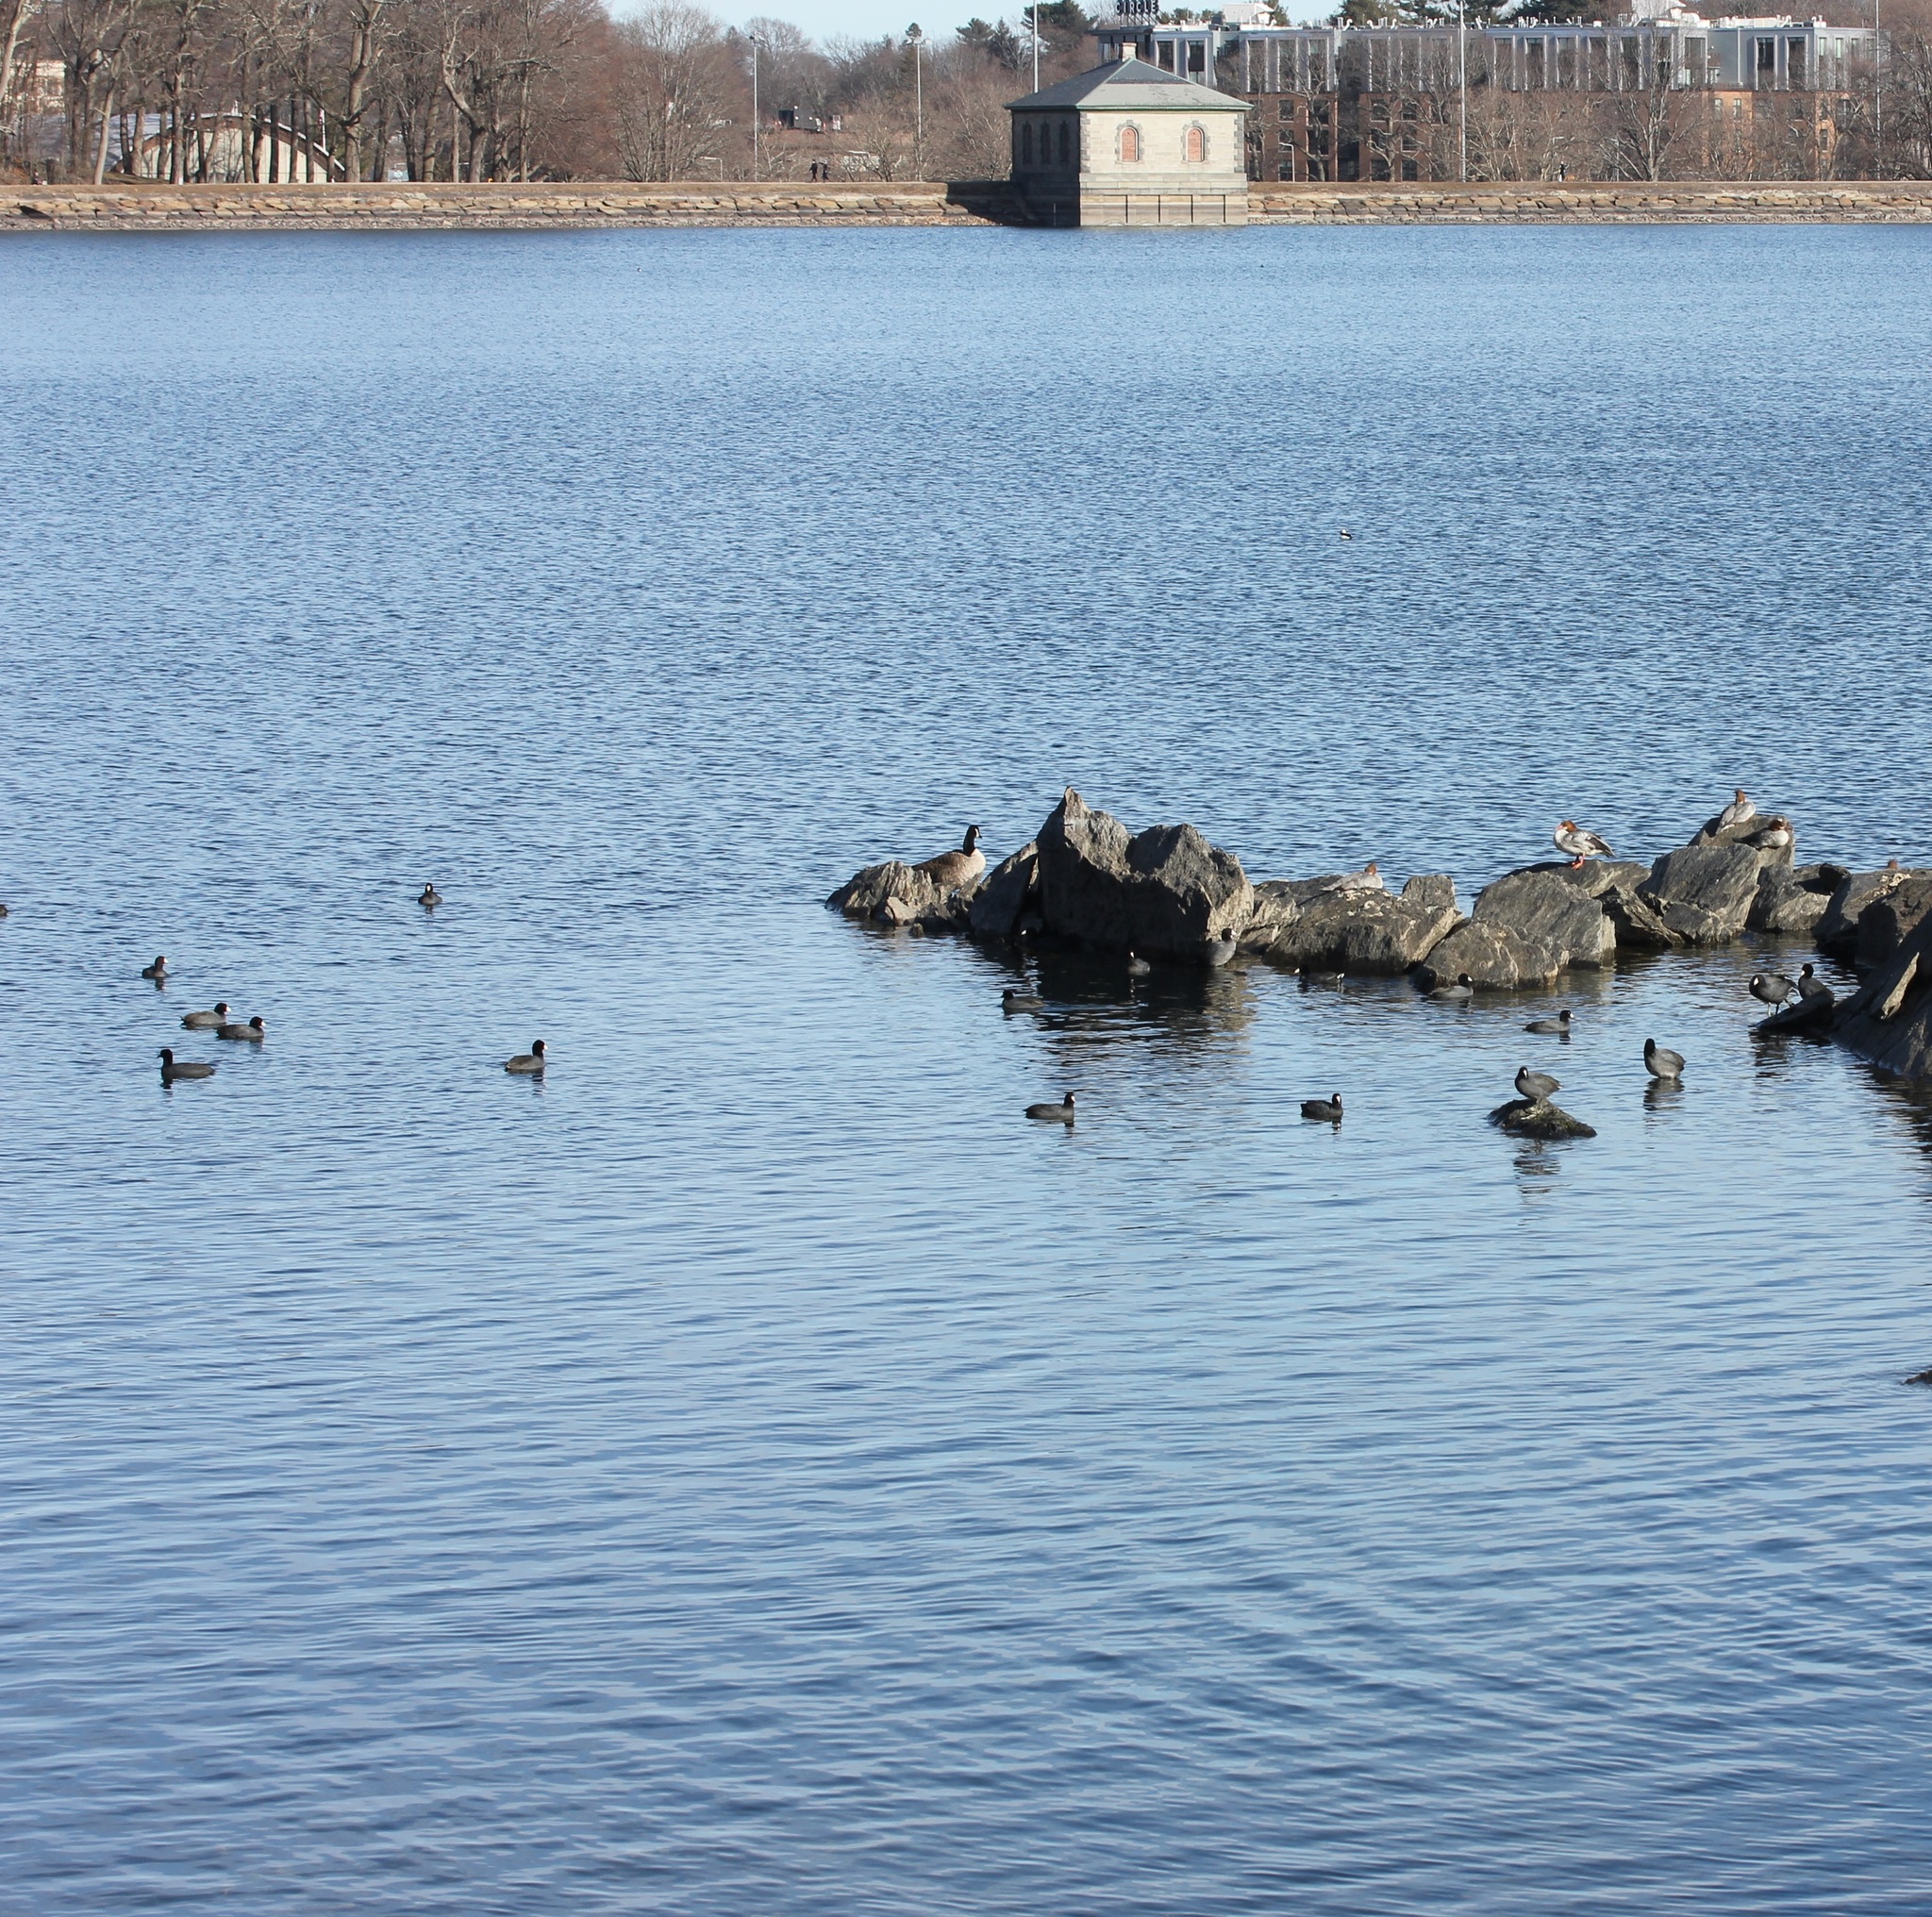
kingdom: Animalia
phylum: Chordata
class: Aves
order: Gruiformes
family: Rallidae
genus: Fulica
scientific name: Fulica americana
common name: American coot
